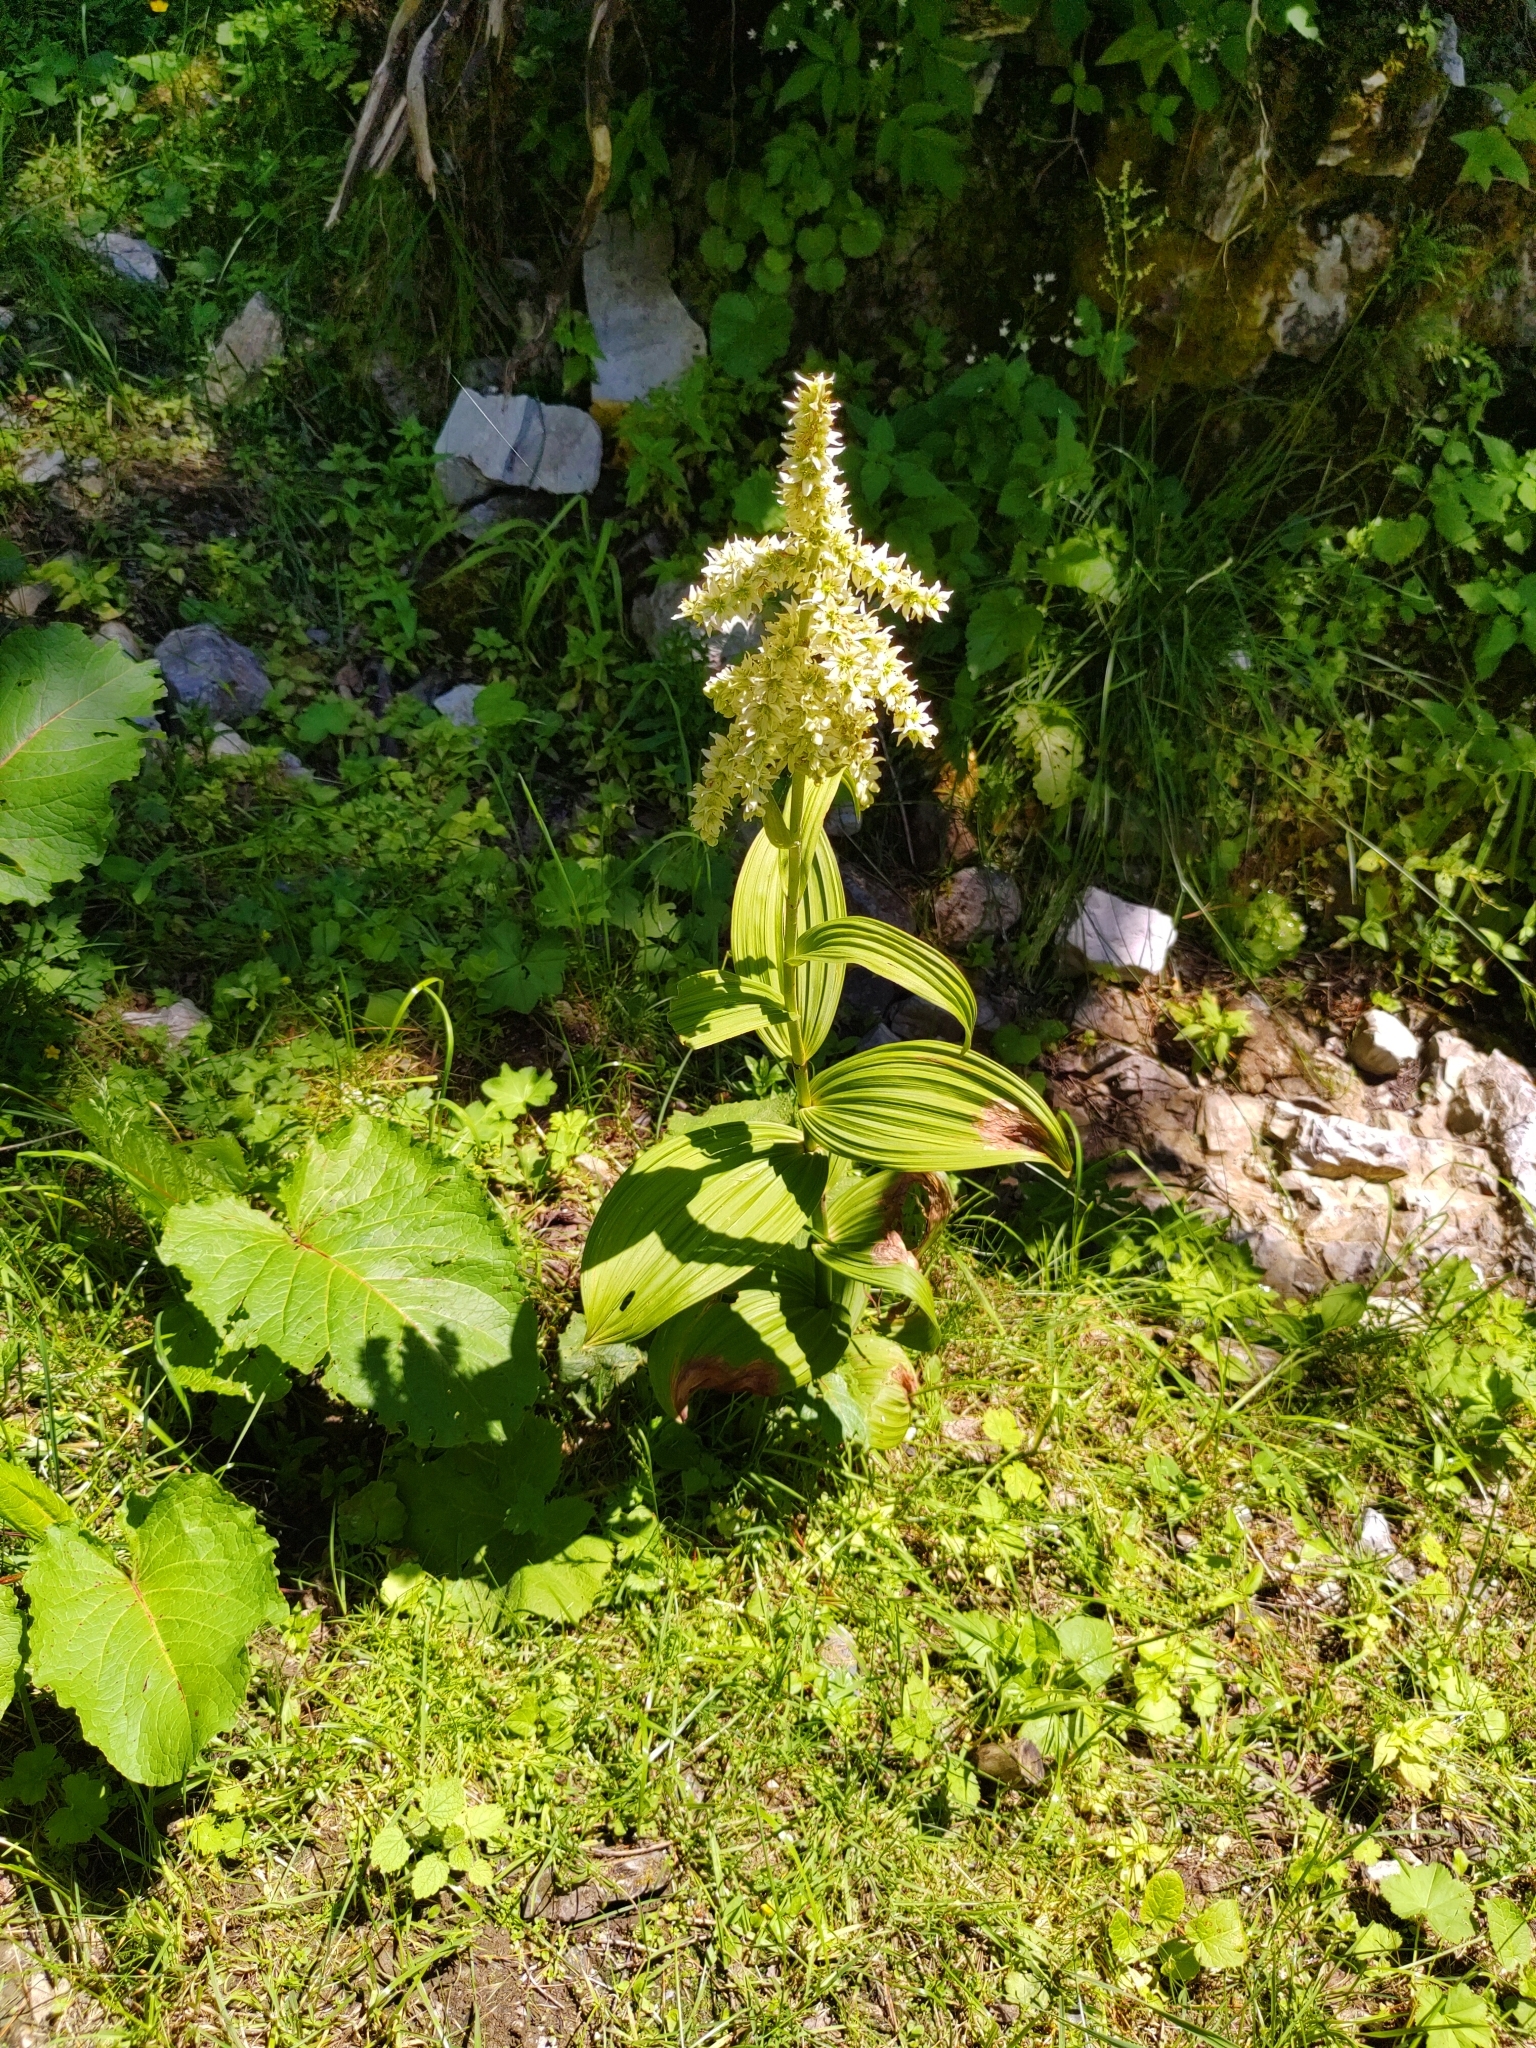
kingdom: Plantae
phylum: Tracheophyta
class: Liliopsida
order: Liliales
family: Melanthiaceae
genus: Veratrum
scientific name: Veratrum album
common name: White veratrum
